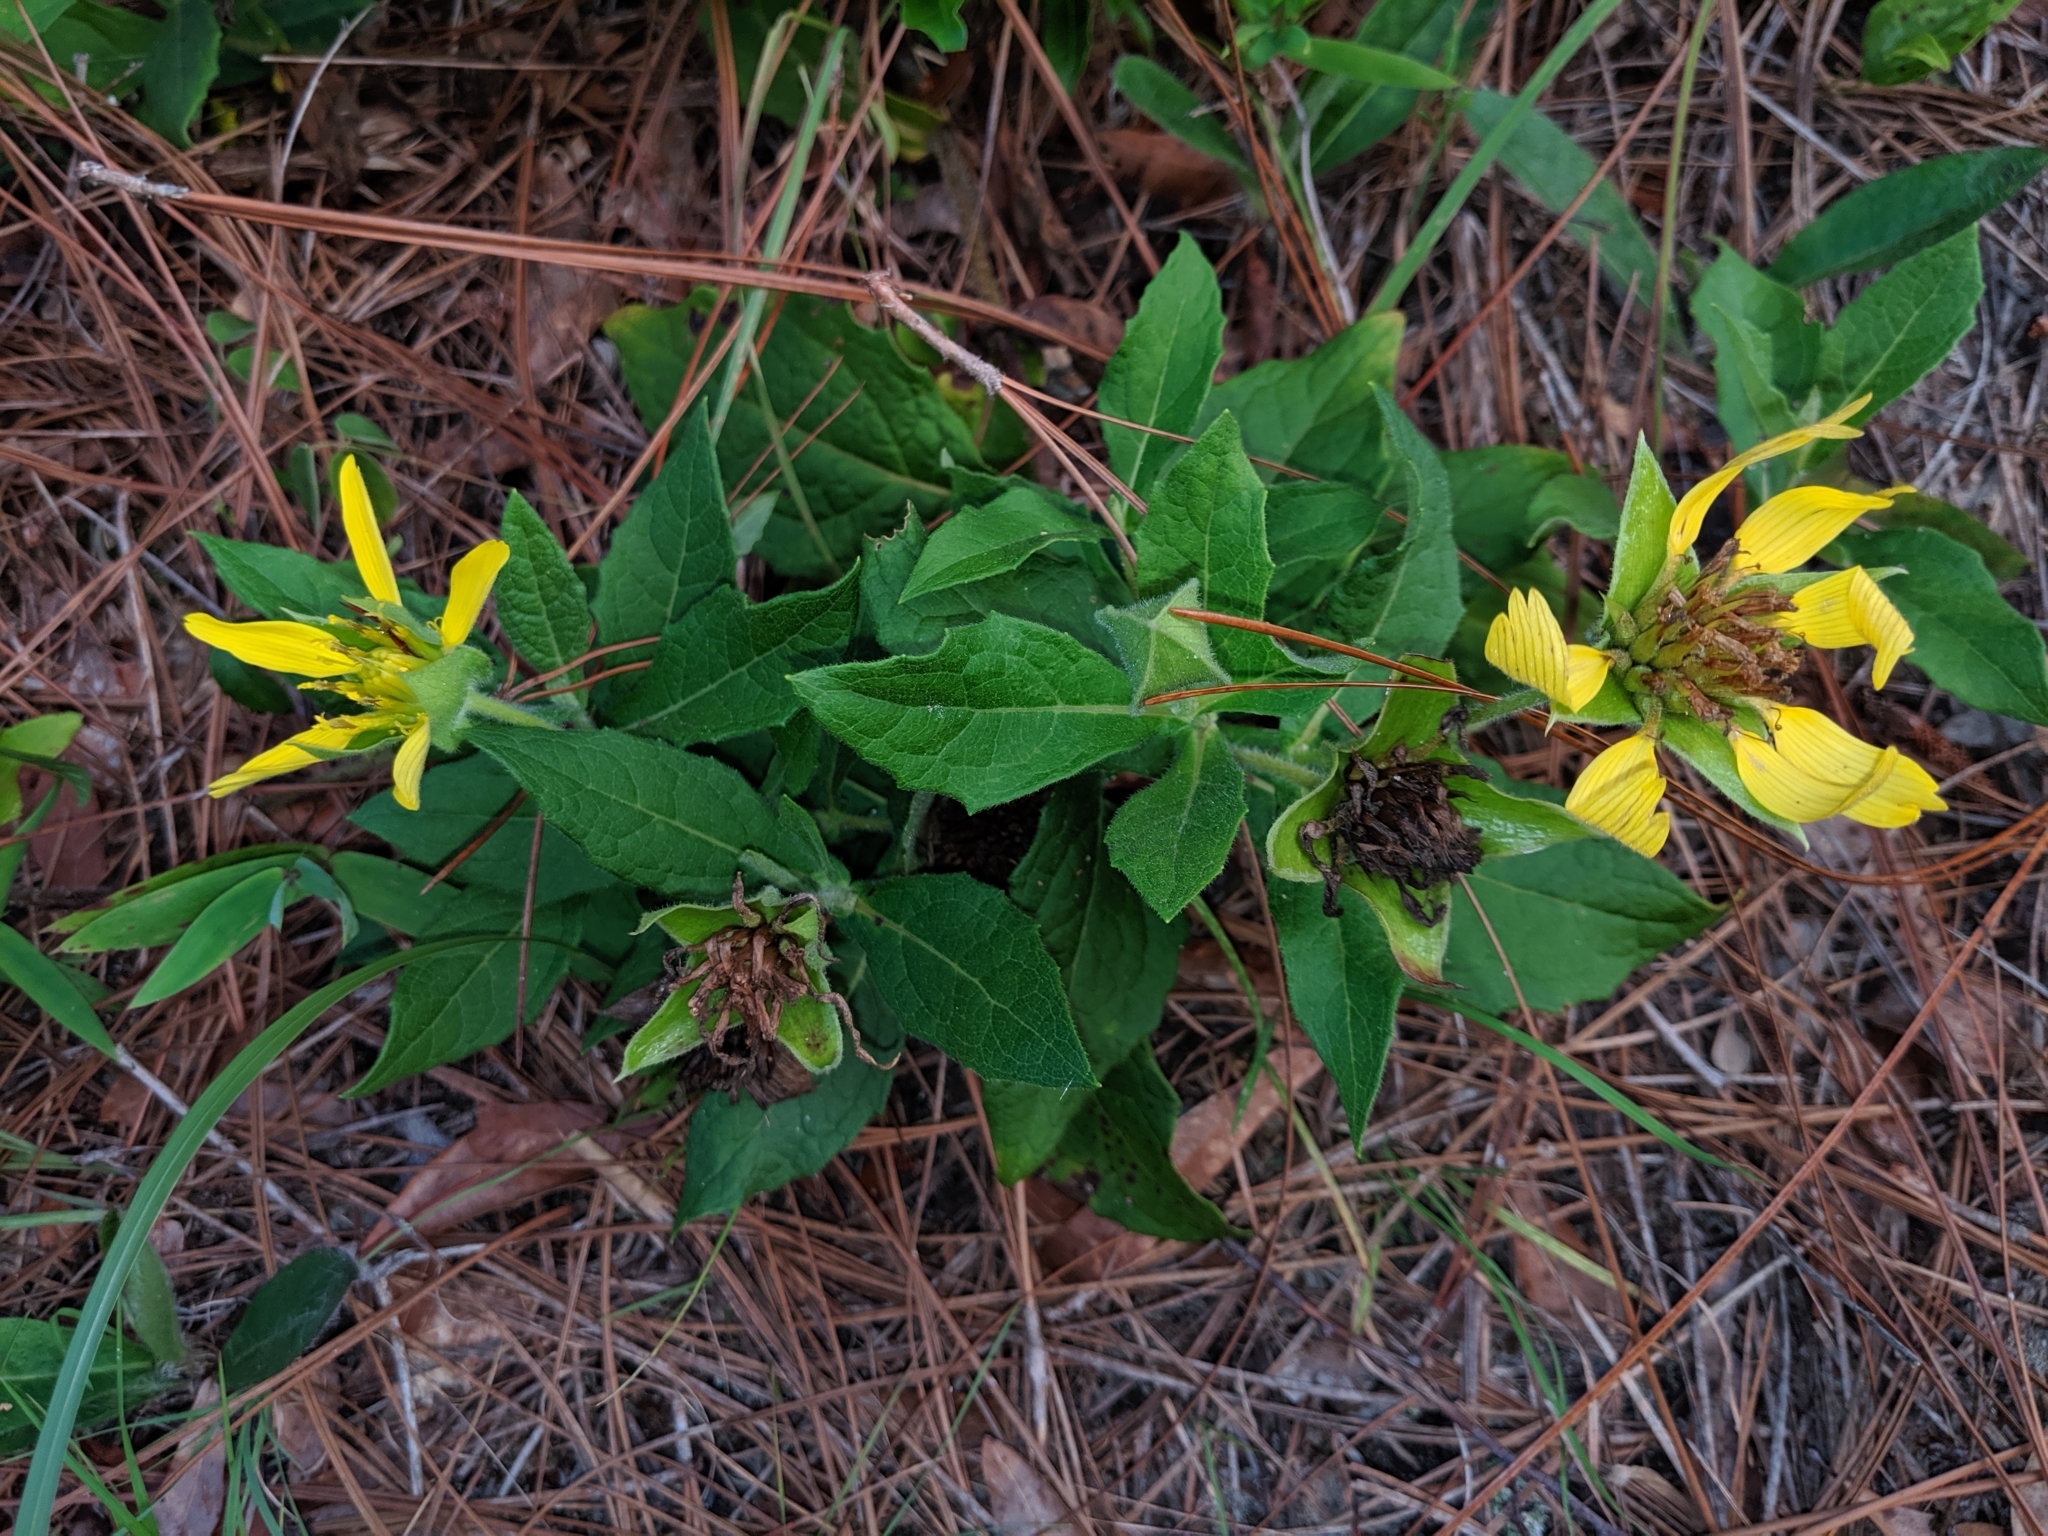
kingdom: Plantae
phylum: Tracheophyta
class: Magnoliopsida
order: Asterales
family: Asteraceae
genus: Tetragonotheca
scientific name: Tetragonotheca helianthoides
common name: Pineland-ginseng
